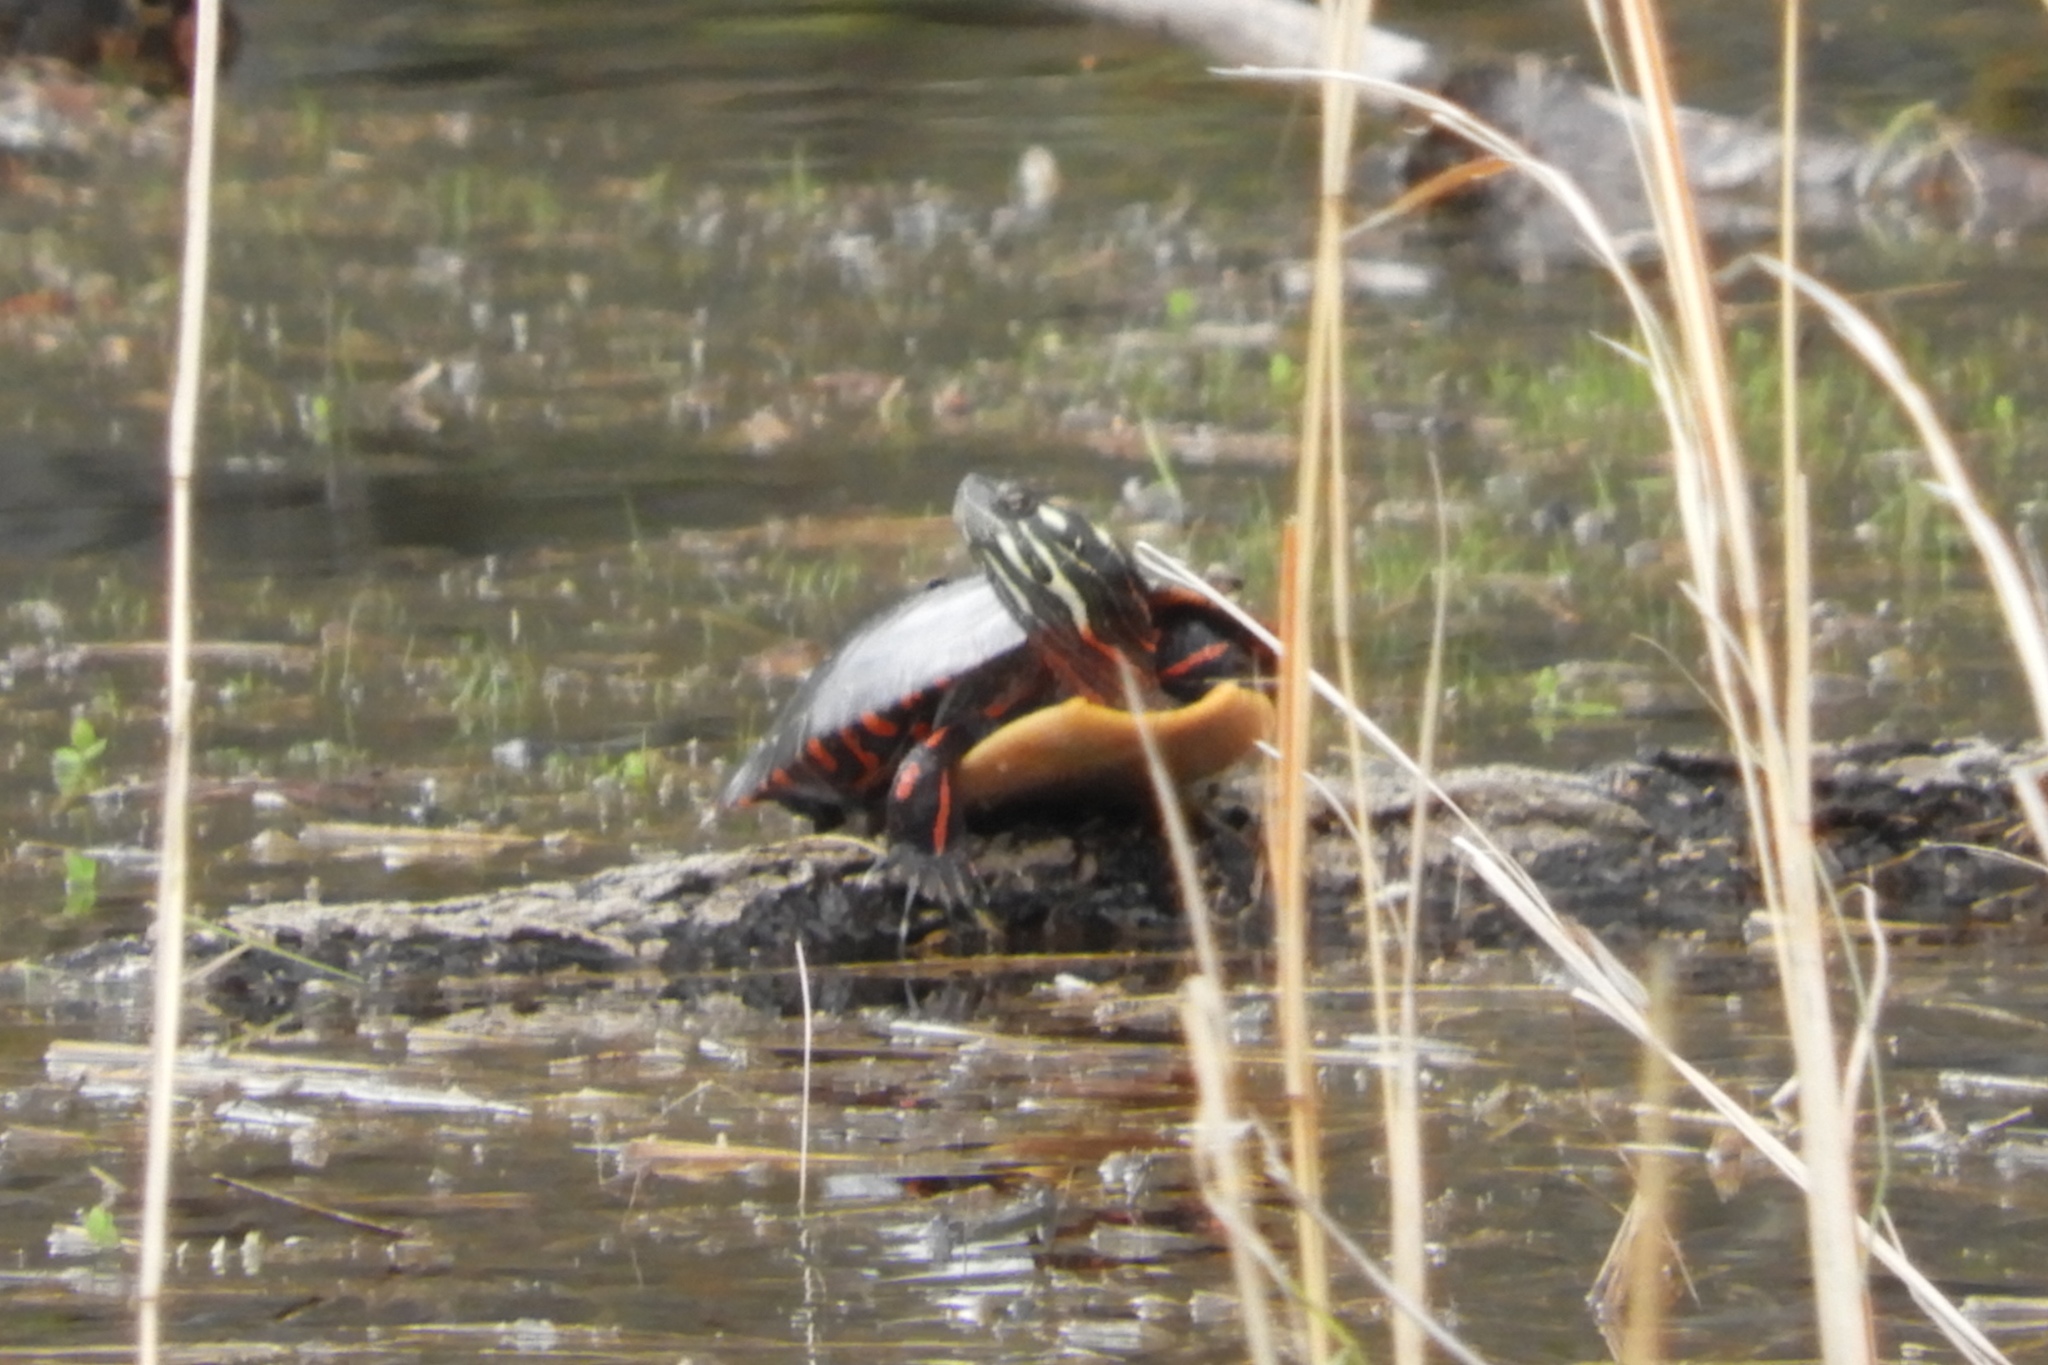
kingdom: Animalia
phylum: Chordata
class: Testudines
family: Emydidae
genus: Chrysemys
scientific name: Chrysemys picta
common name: Painted turtle
